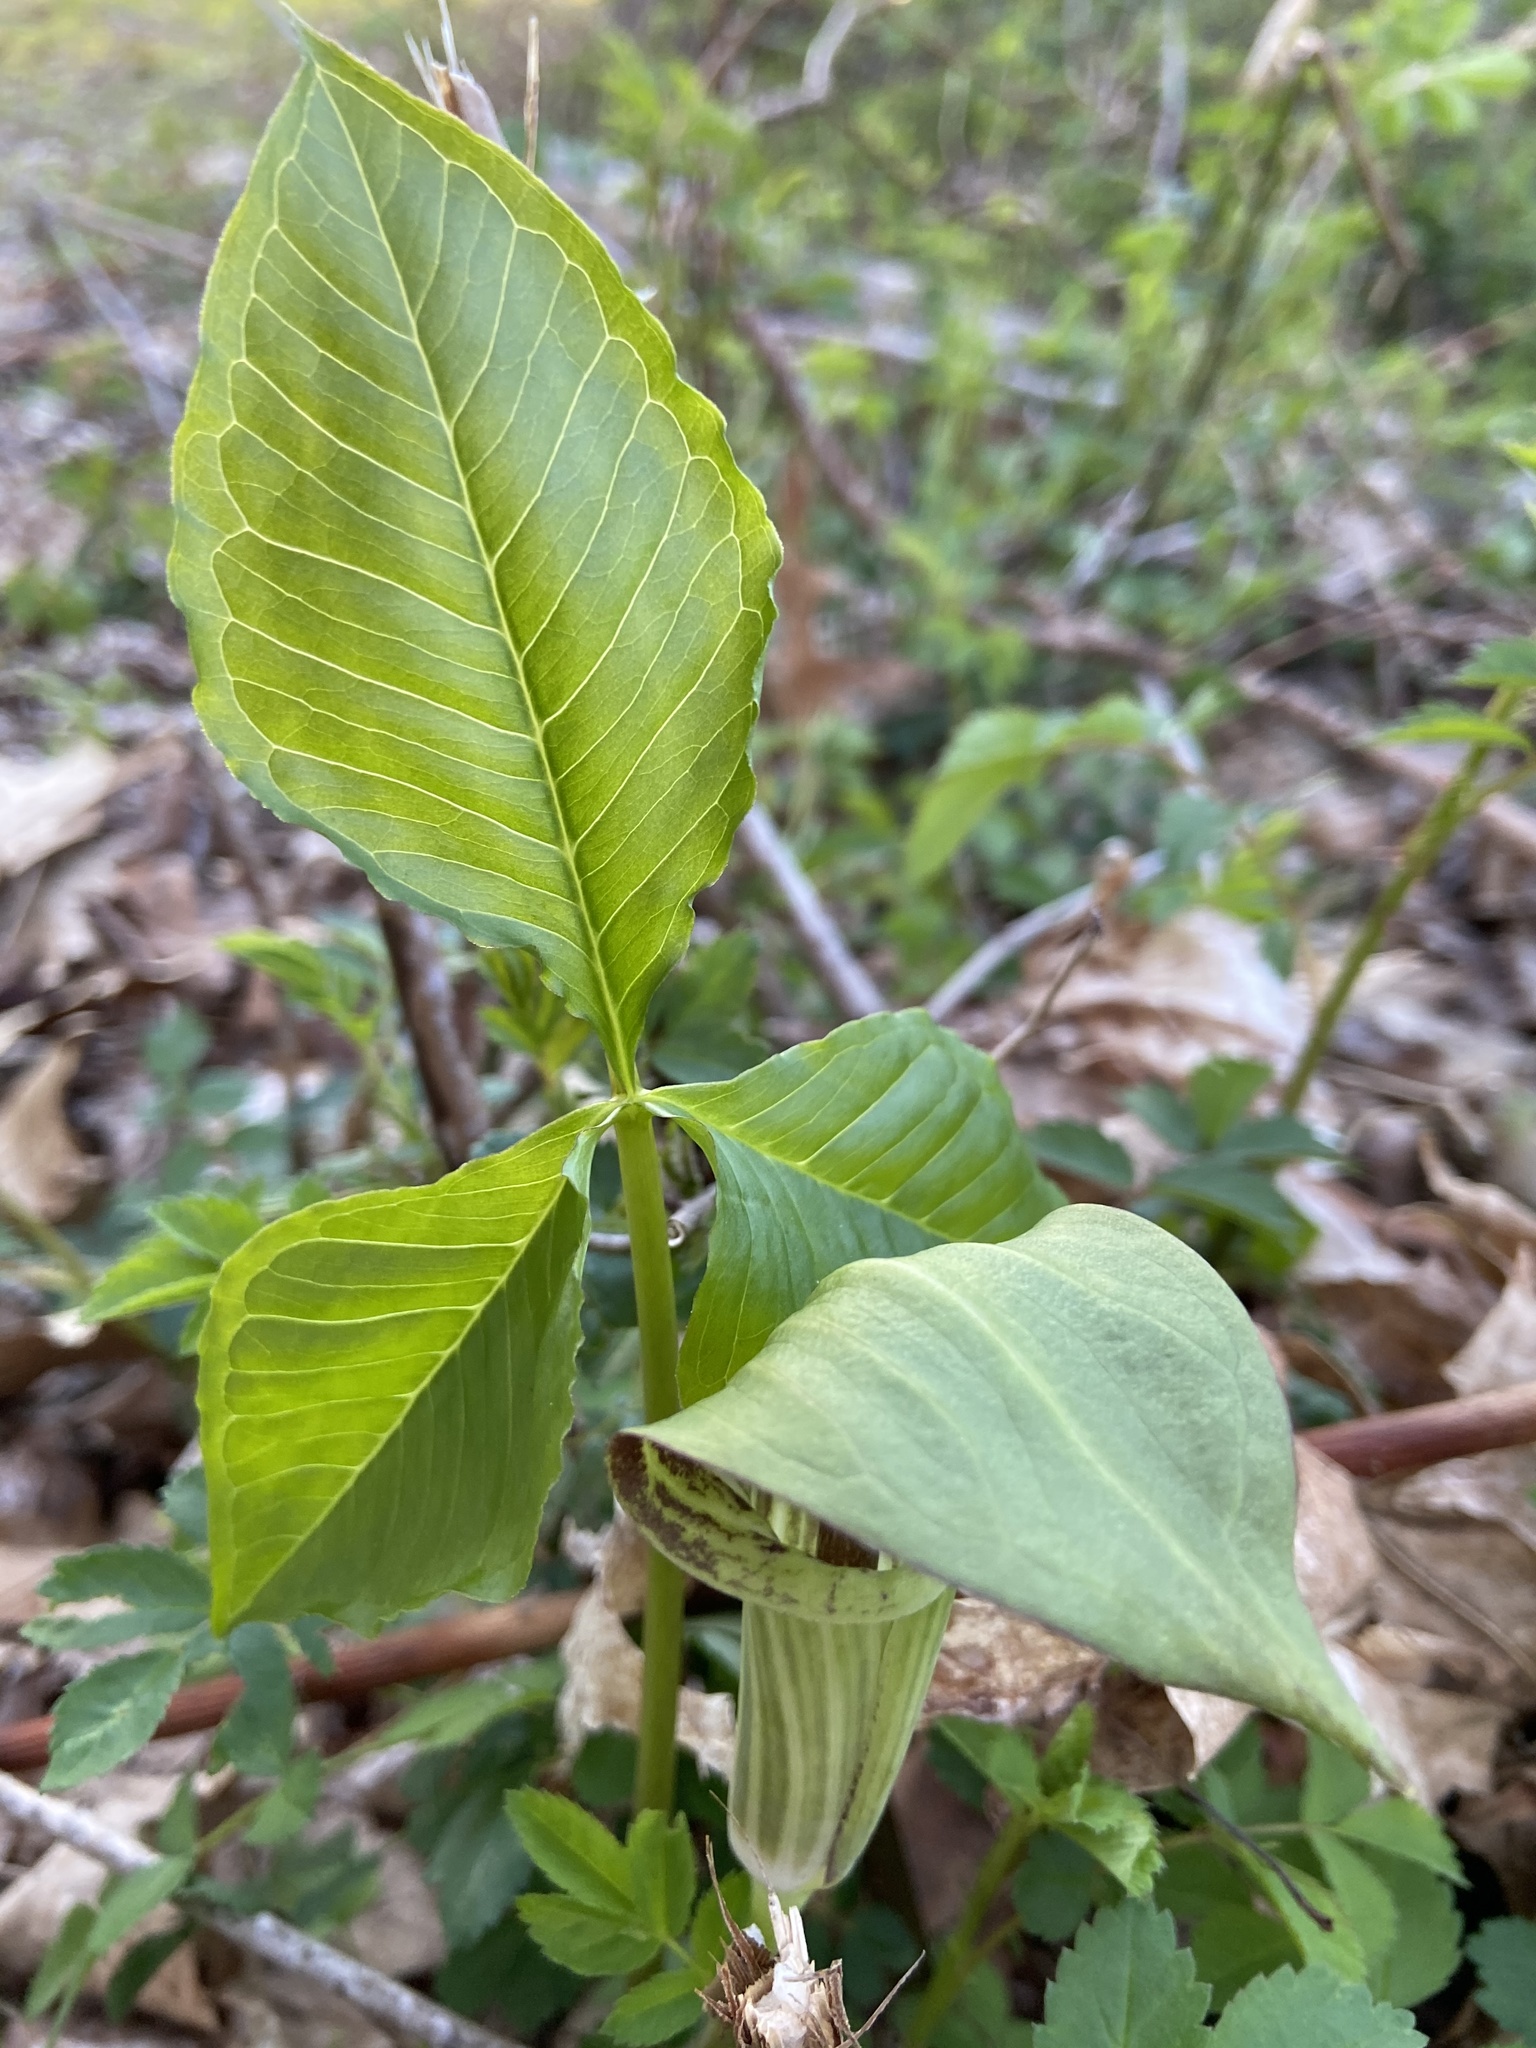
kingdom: Plantae
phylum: Tracheophyta
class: Liliopsida
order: Alismatales
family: Araceae
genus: Arisaema
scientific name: Arisaema triphyllum
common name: Jack-in-the-pulpit
